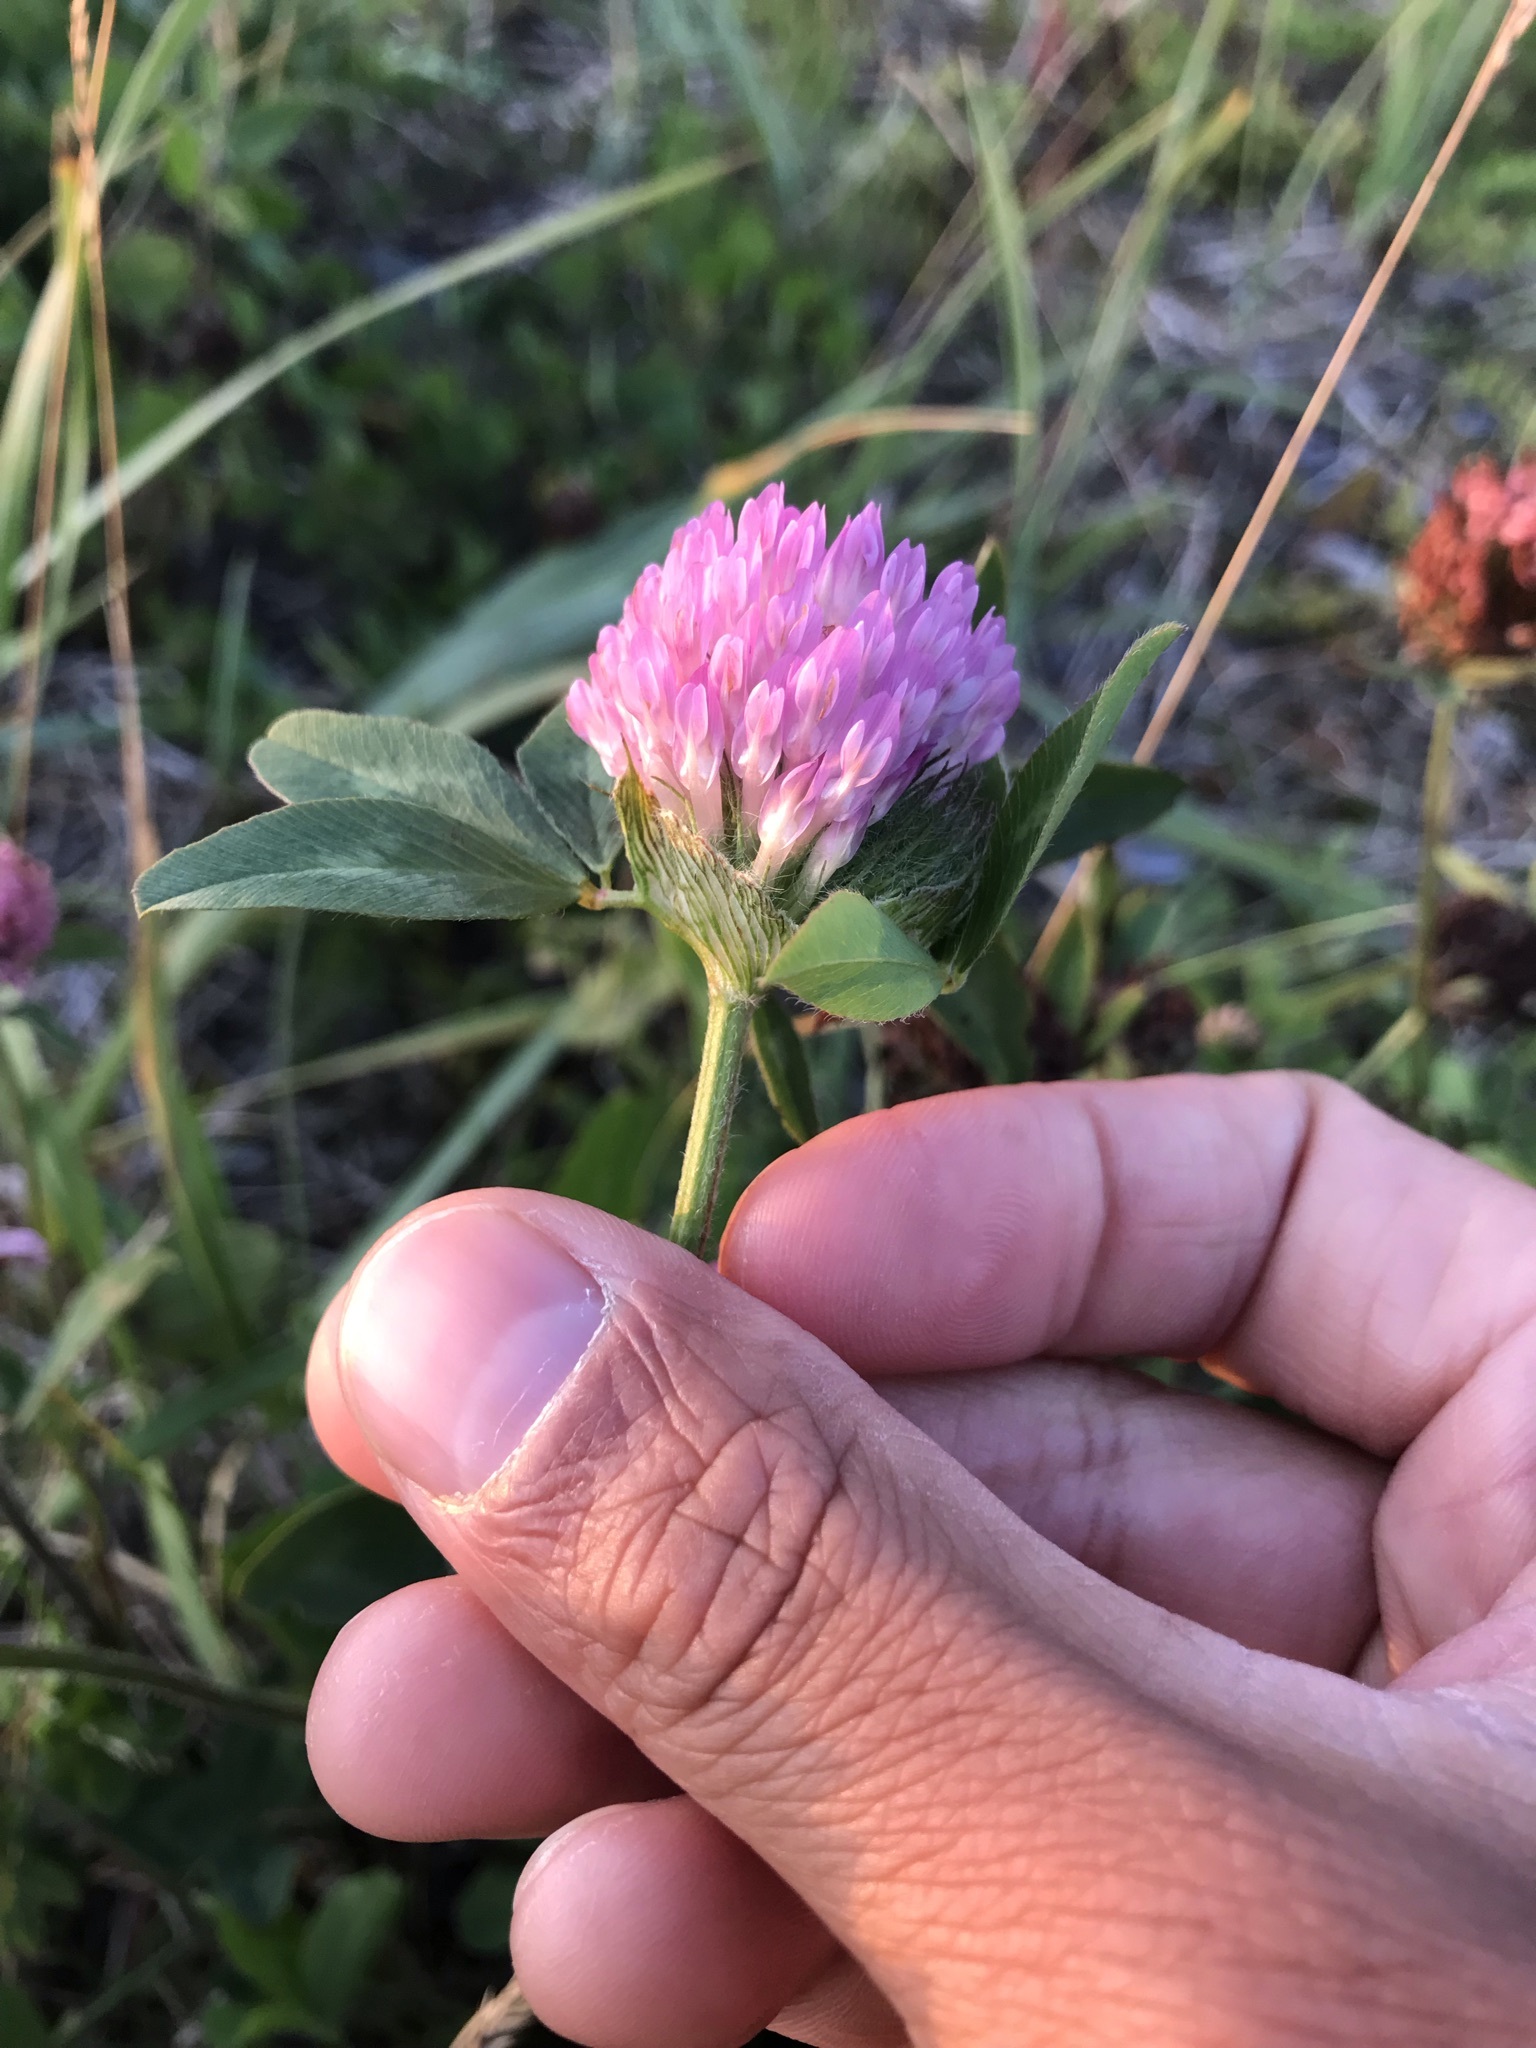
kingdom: Plantae
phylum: Tracheophyta
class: Magnoliopsida
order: Fabales
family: Fabaceae
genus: Trifolium
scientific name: Trifolium pratense
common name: Red clover
